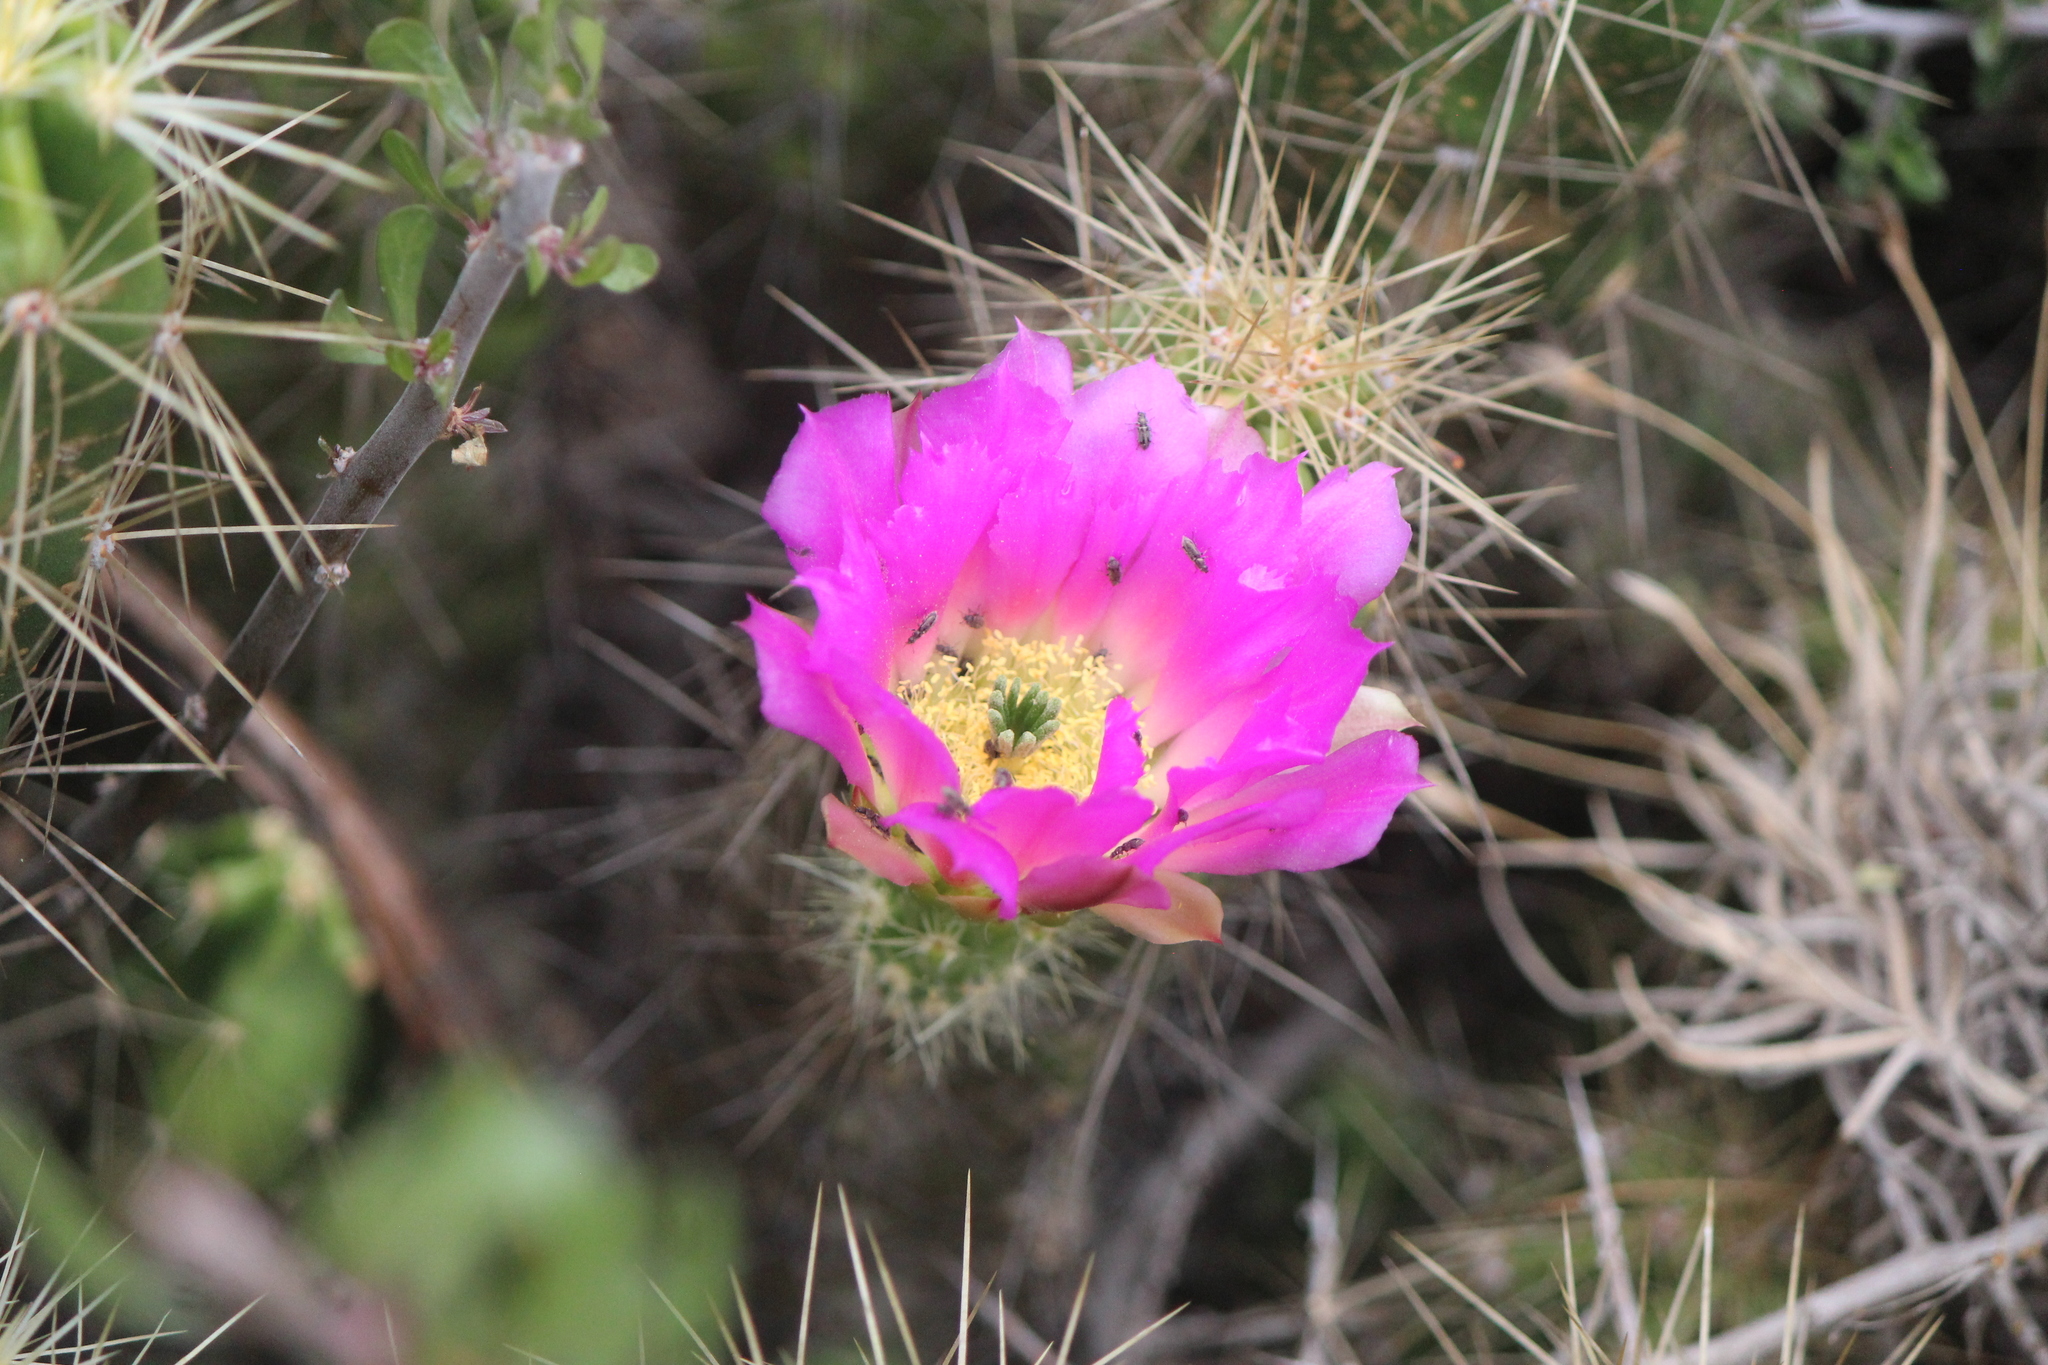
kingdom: Plantae
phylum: Tracheophyta
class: Magnoliopsida
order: Caryophyllales
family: Cactaceae
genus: Echinocereus
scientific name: Echinocereus cinerascens
